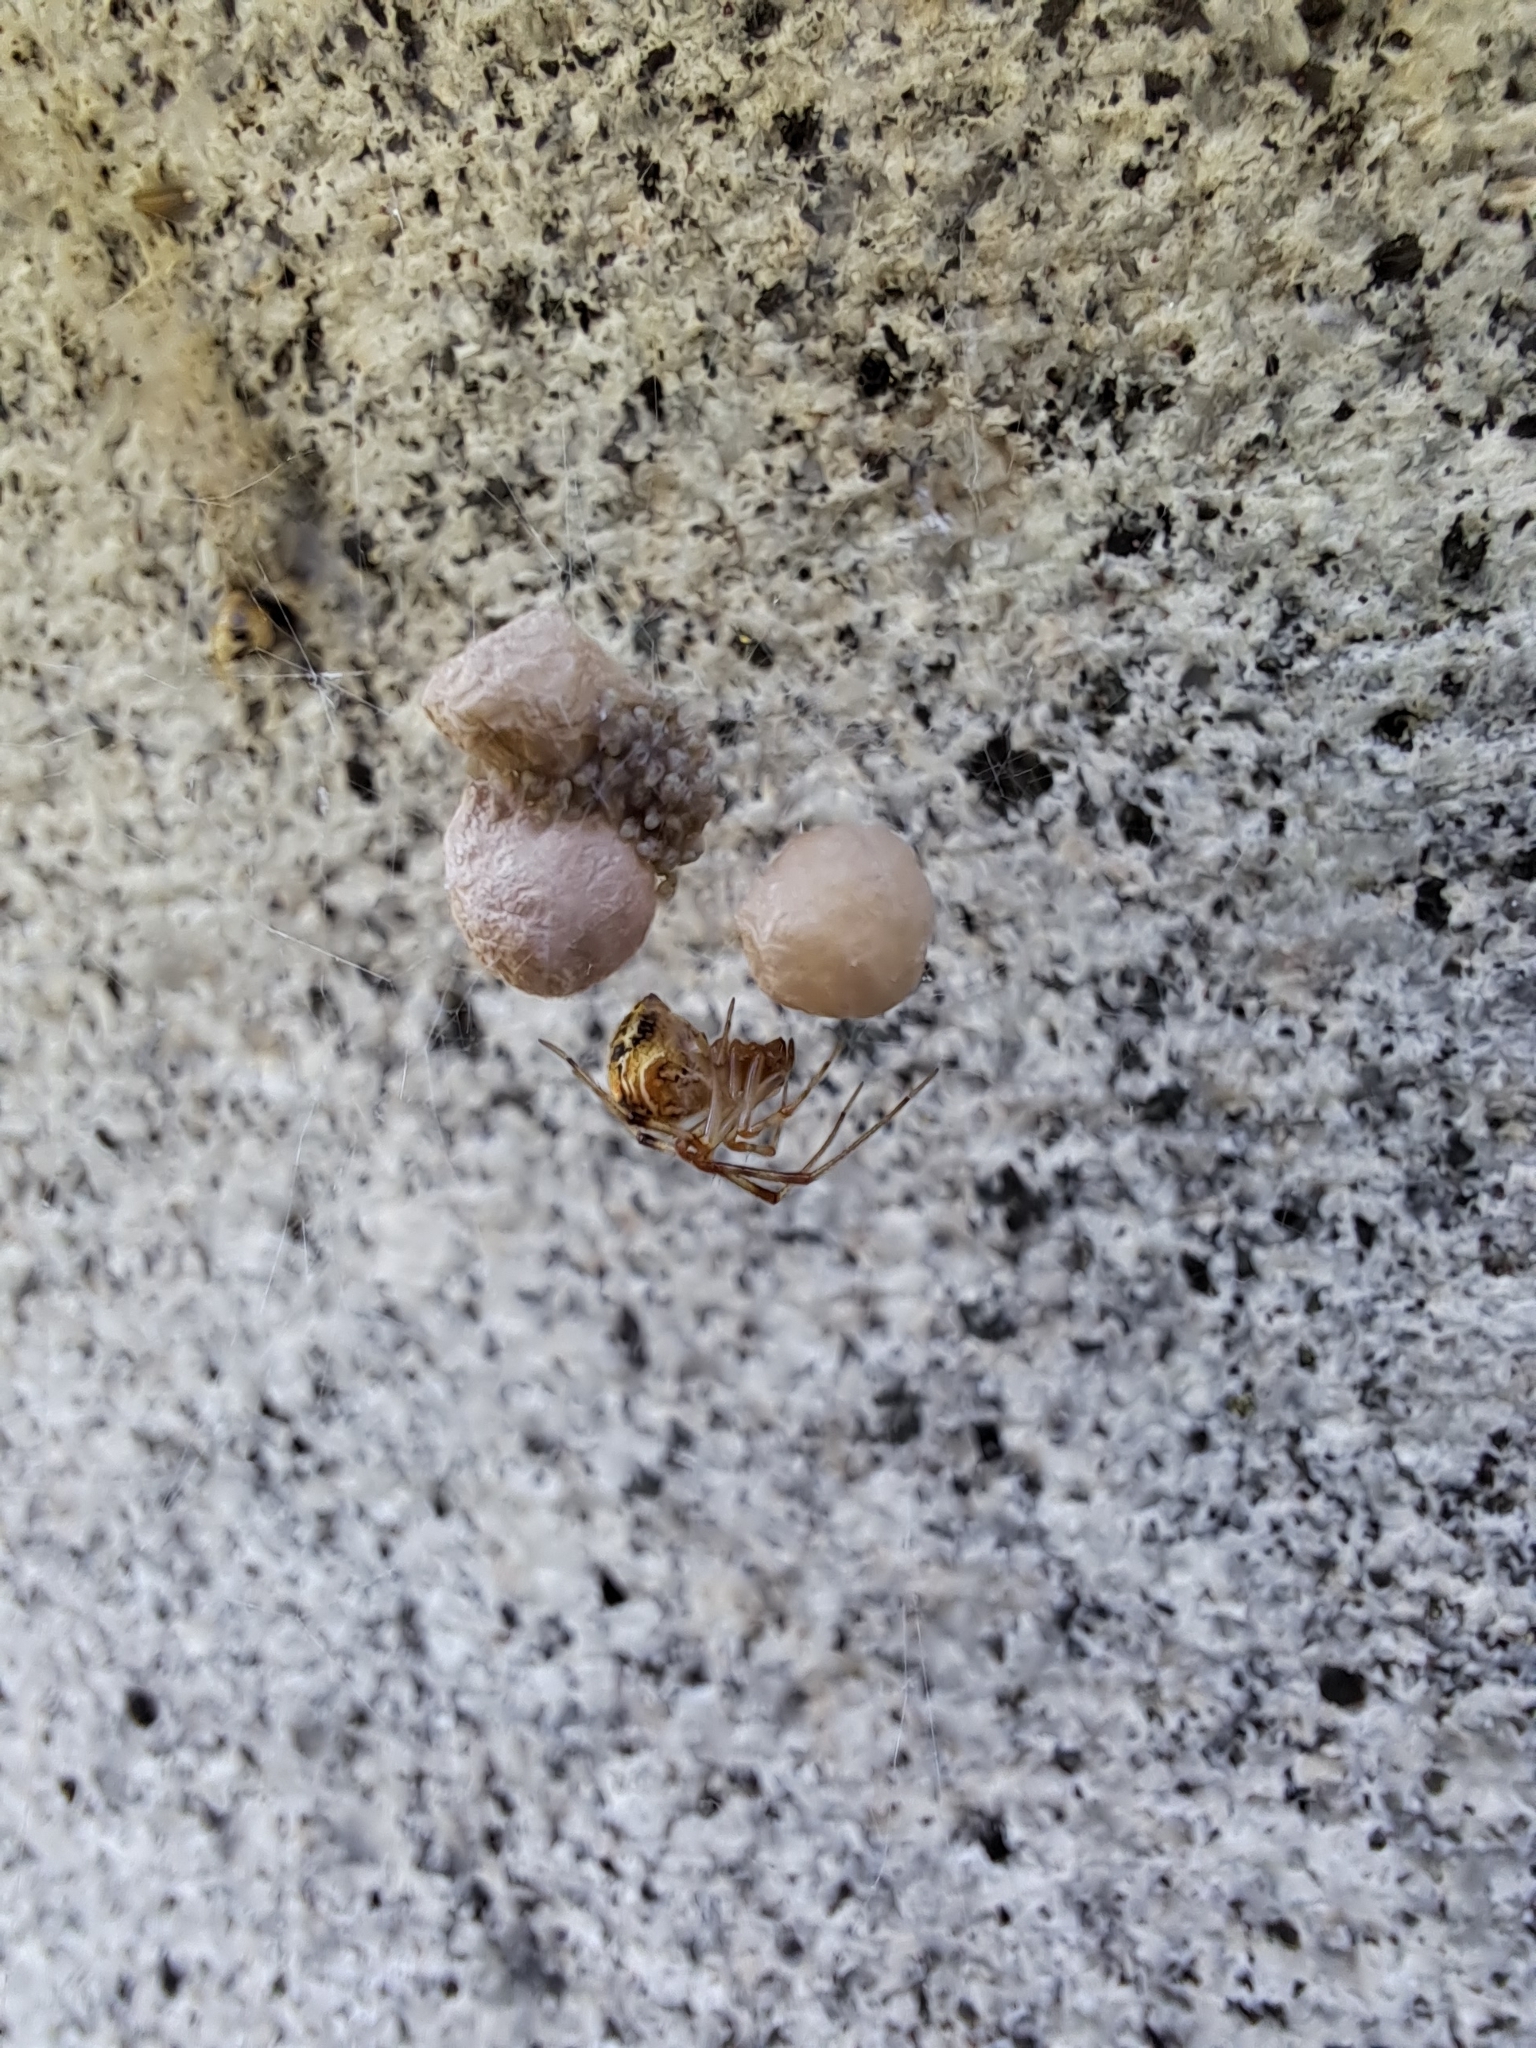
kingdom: Animalia
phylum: Arthropoda
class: Arachnida
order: Araneae
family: Theridiidae
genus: Parasteatoda
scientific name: Parasteatoda tepidariorum
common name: Common house spider
